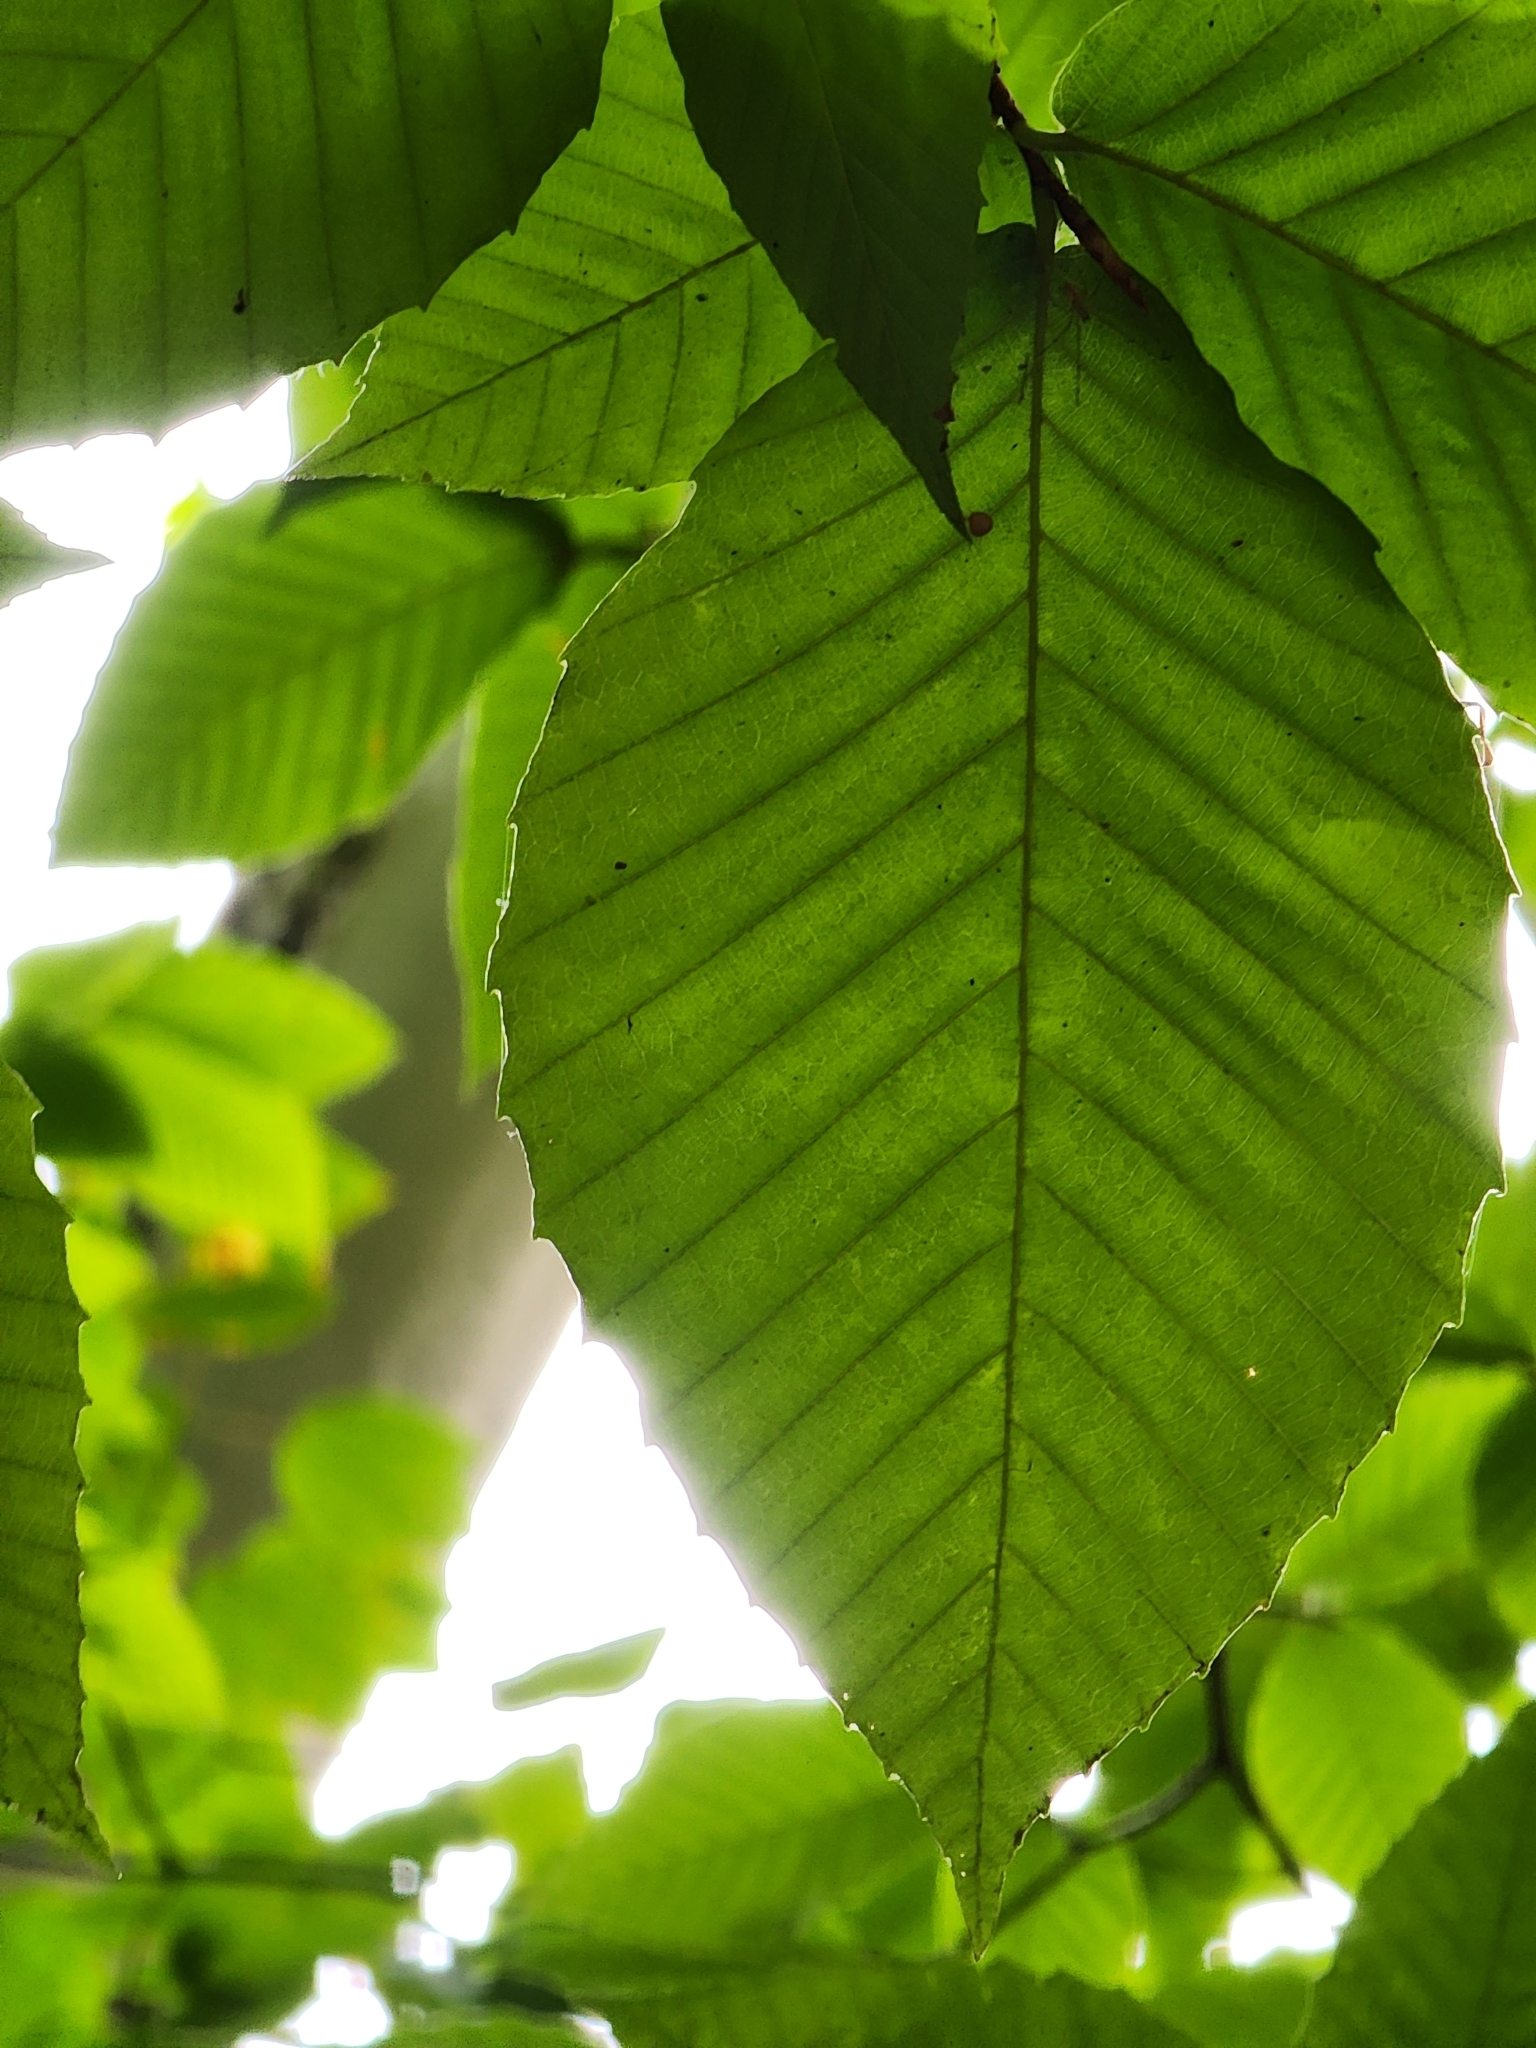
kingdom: Plantae
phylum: Tracheophyta
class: Magnoliopsida
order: Fagales
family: Fagaceae
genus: Fagus
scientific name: Fagus grandifolia
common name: American beech
